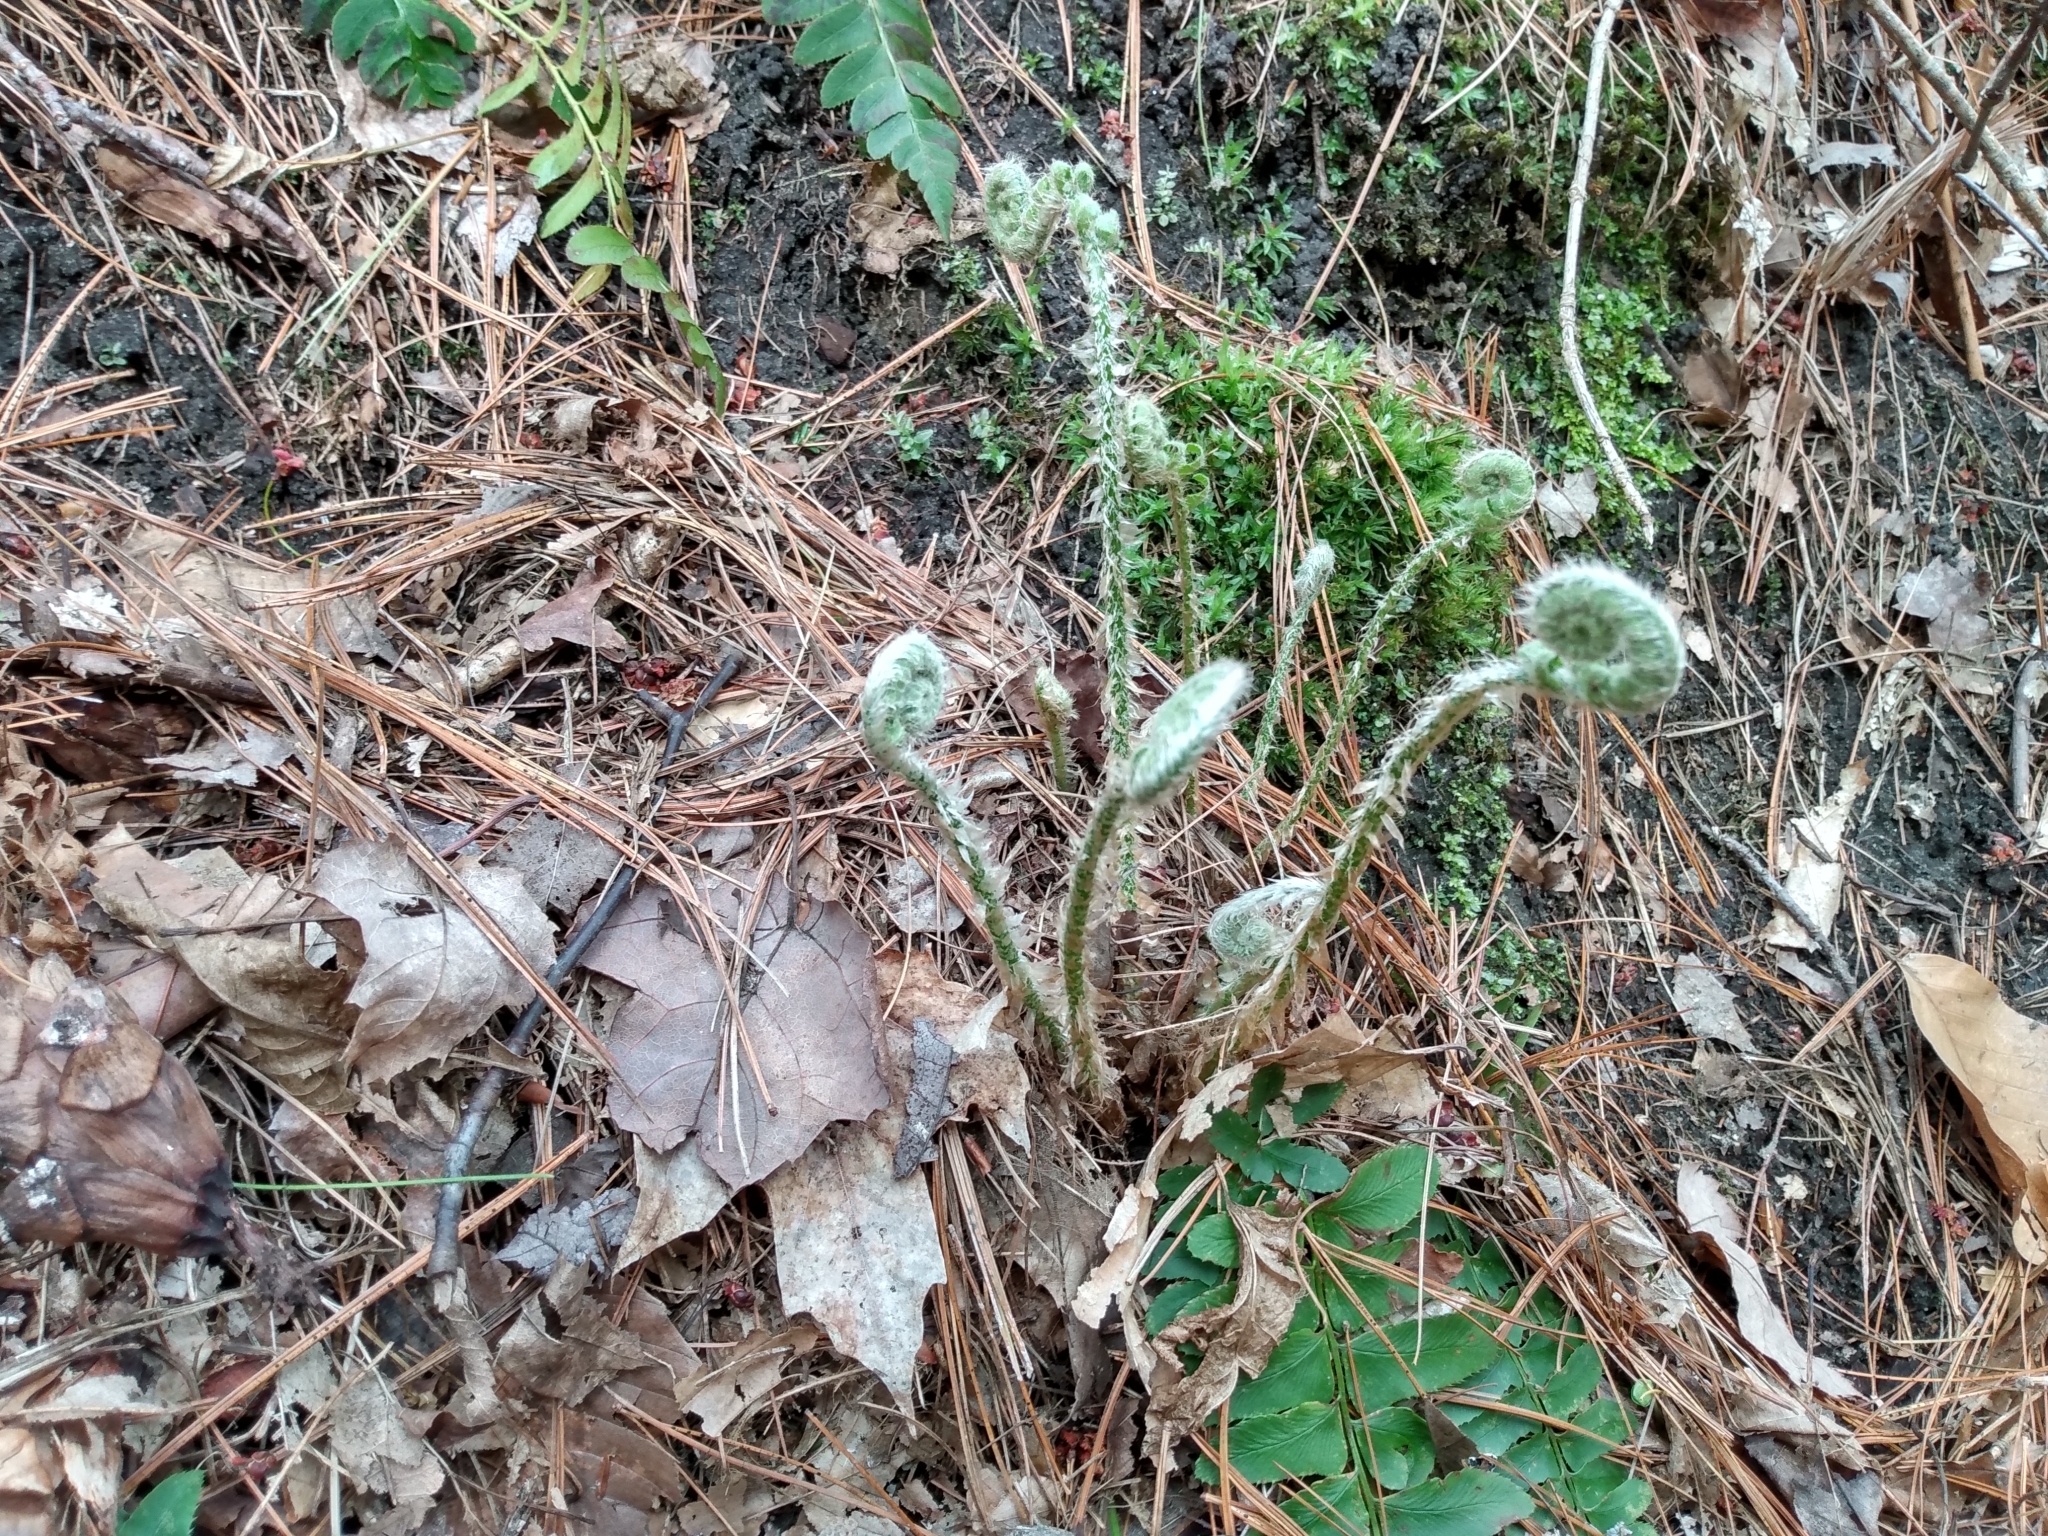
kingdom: Plantae
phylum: Tracheophyta
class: Polypodiopsida
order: Polypodiales
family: Dryopteridaceae
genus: Polystichum
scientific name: Polystichum acrostichoides
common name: Christmas fern
